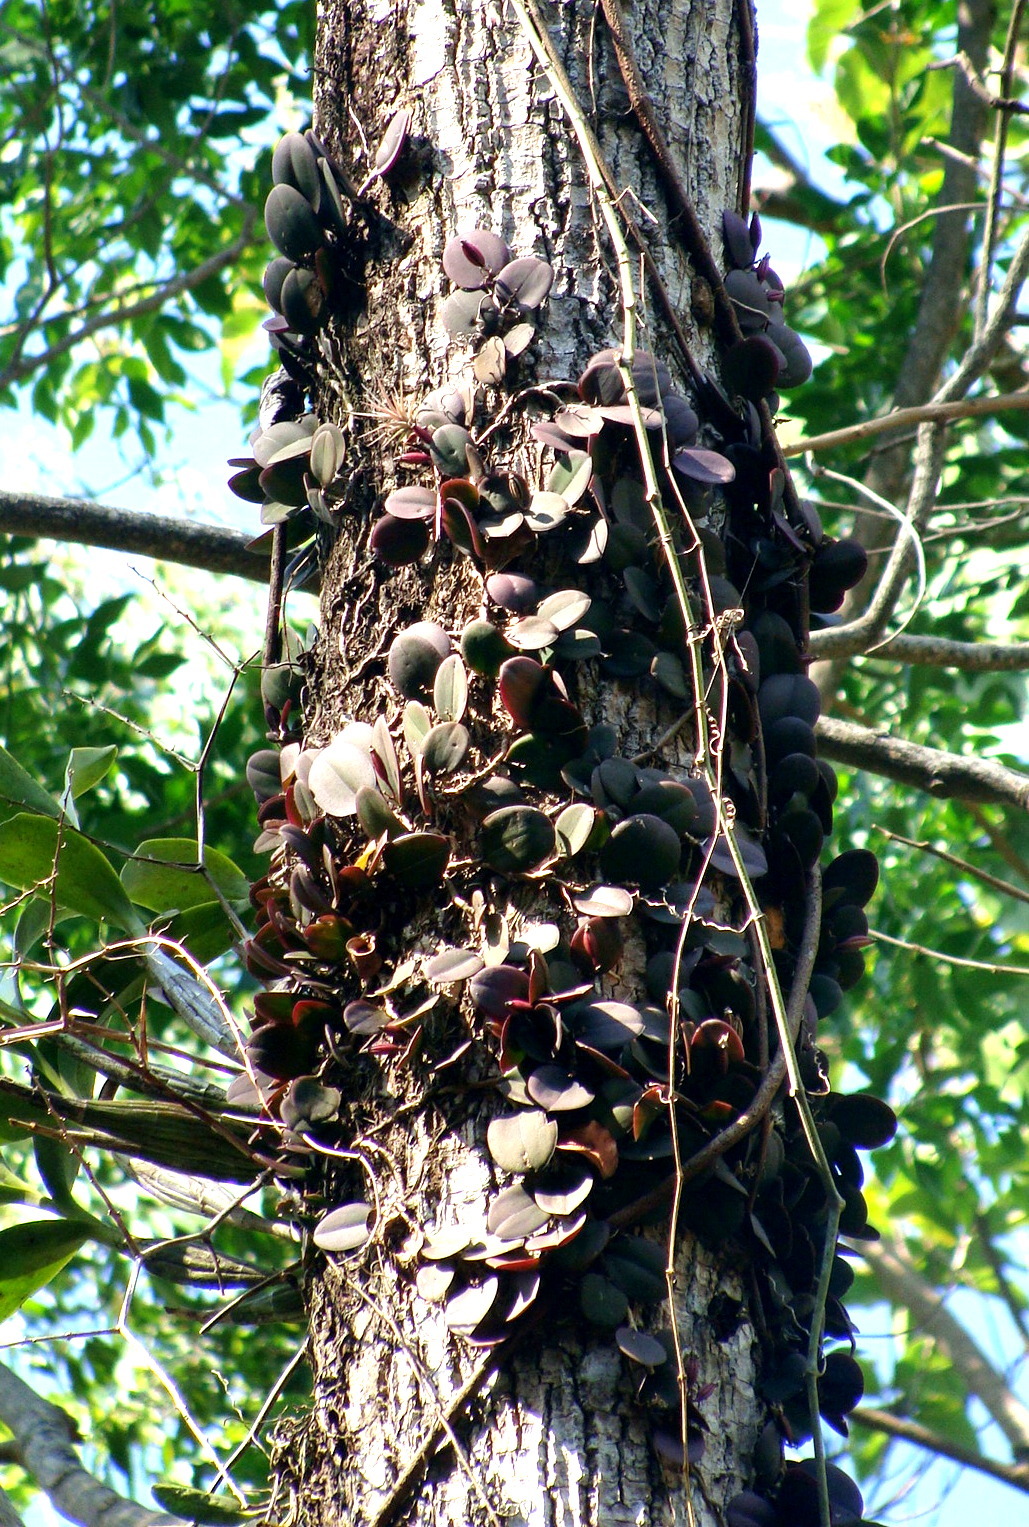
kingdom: Plantae
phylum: Tracheophyta
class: Liliopsida
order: Asparagales
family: Orchidaceae
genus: Meiracyllium
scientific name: Meiracyllium trinasutum
